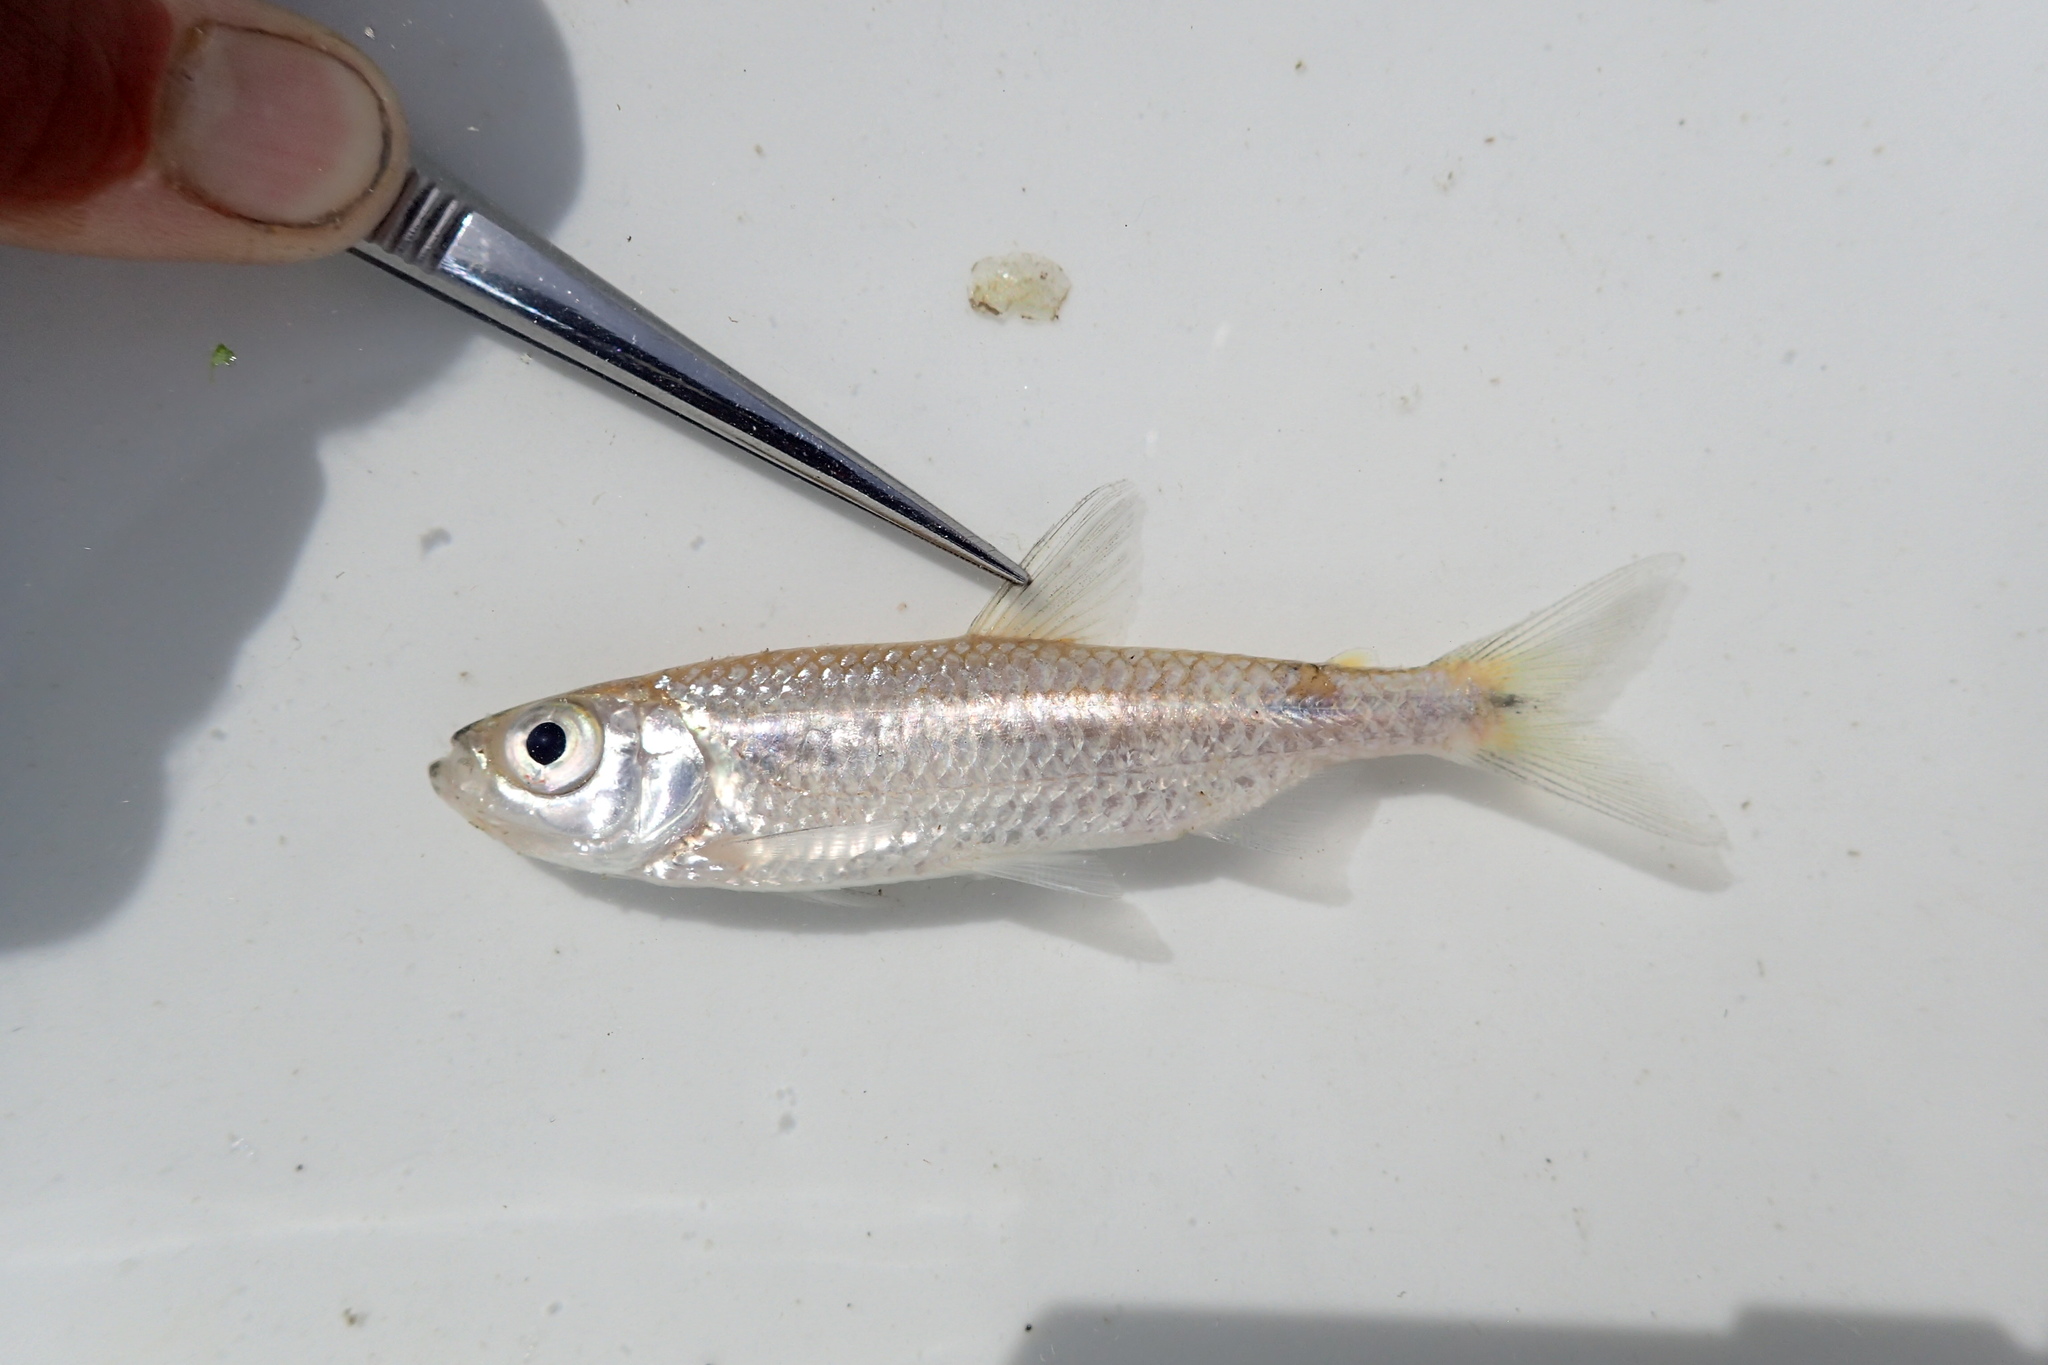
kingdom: Animalia
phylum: Chordata
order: Characiformes
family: Alestidae
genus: Alestes
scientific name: Alestes
